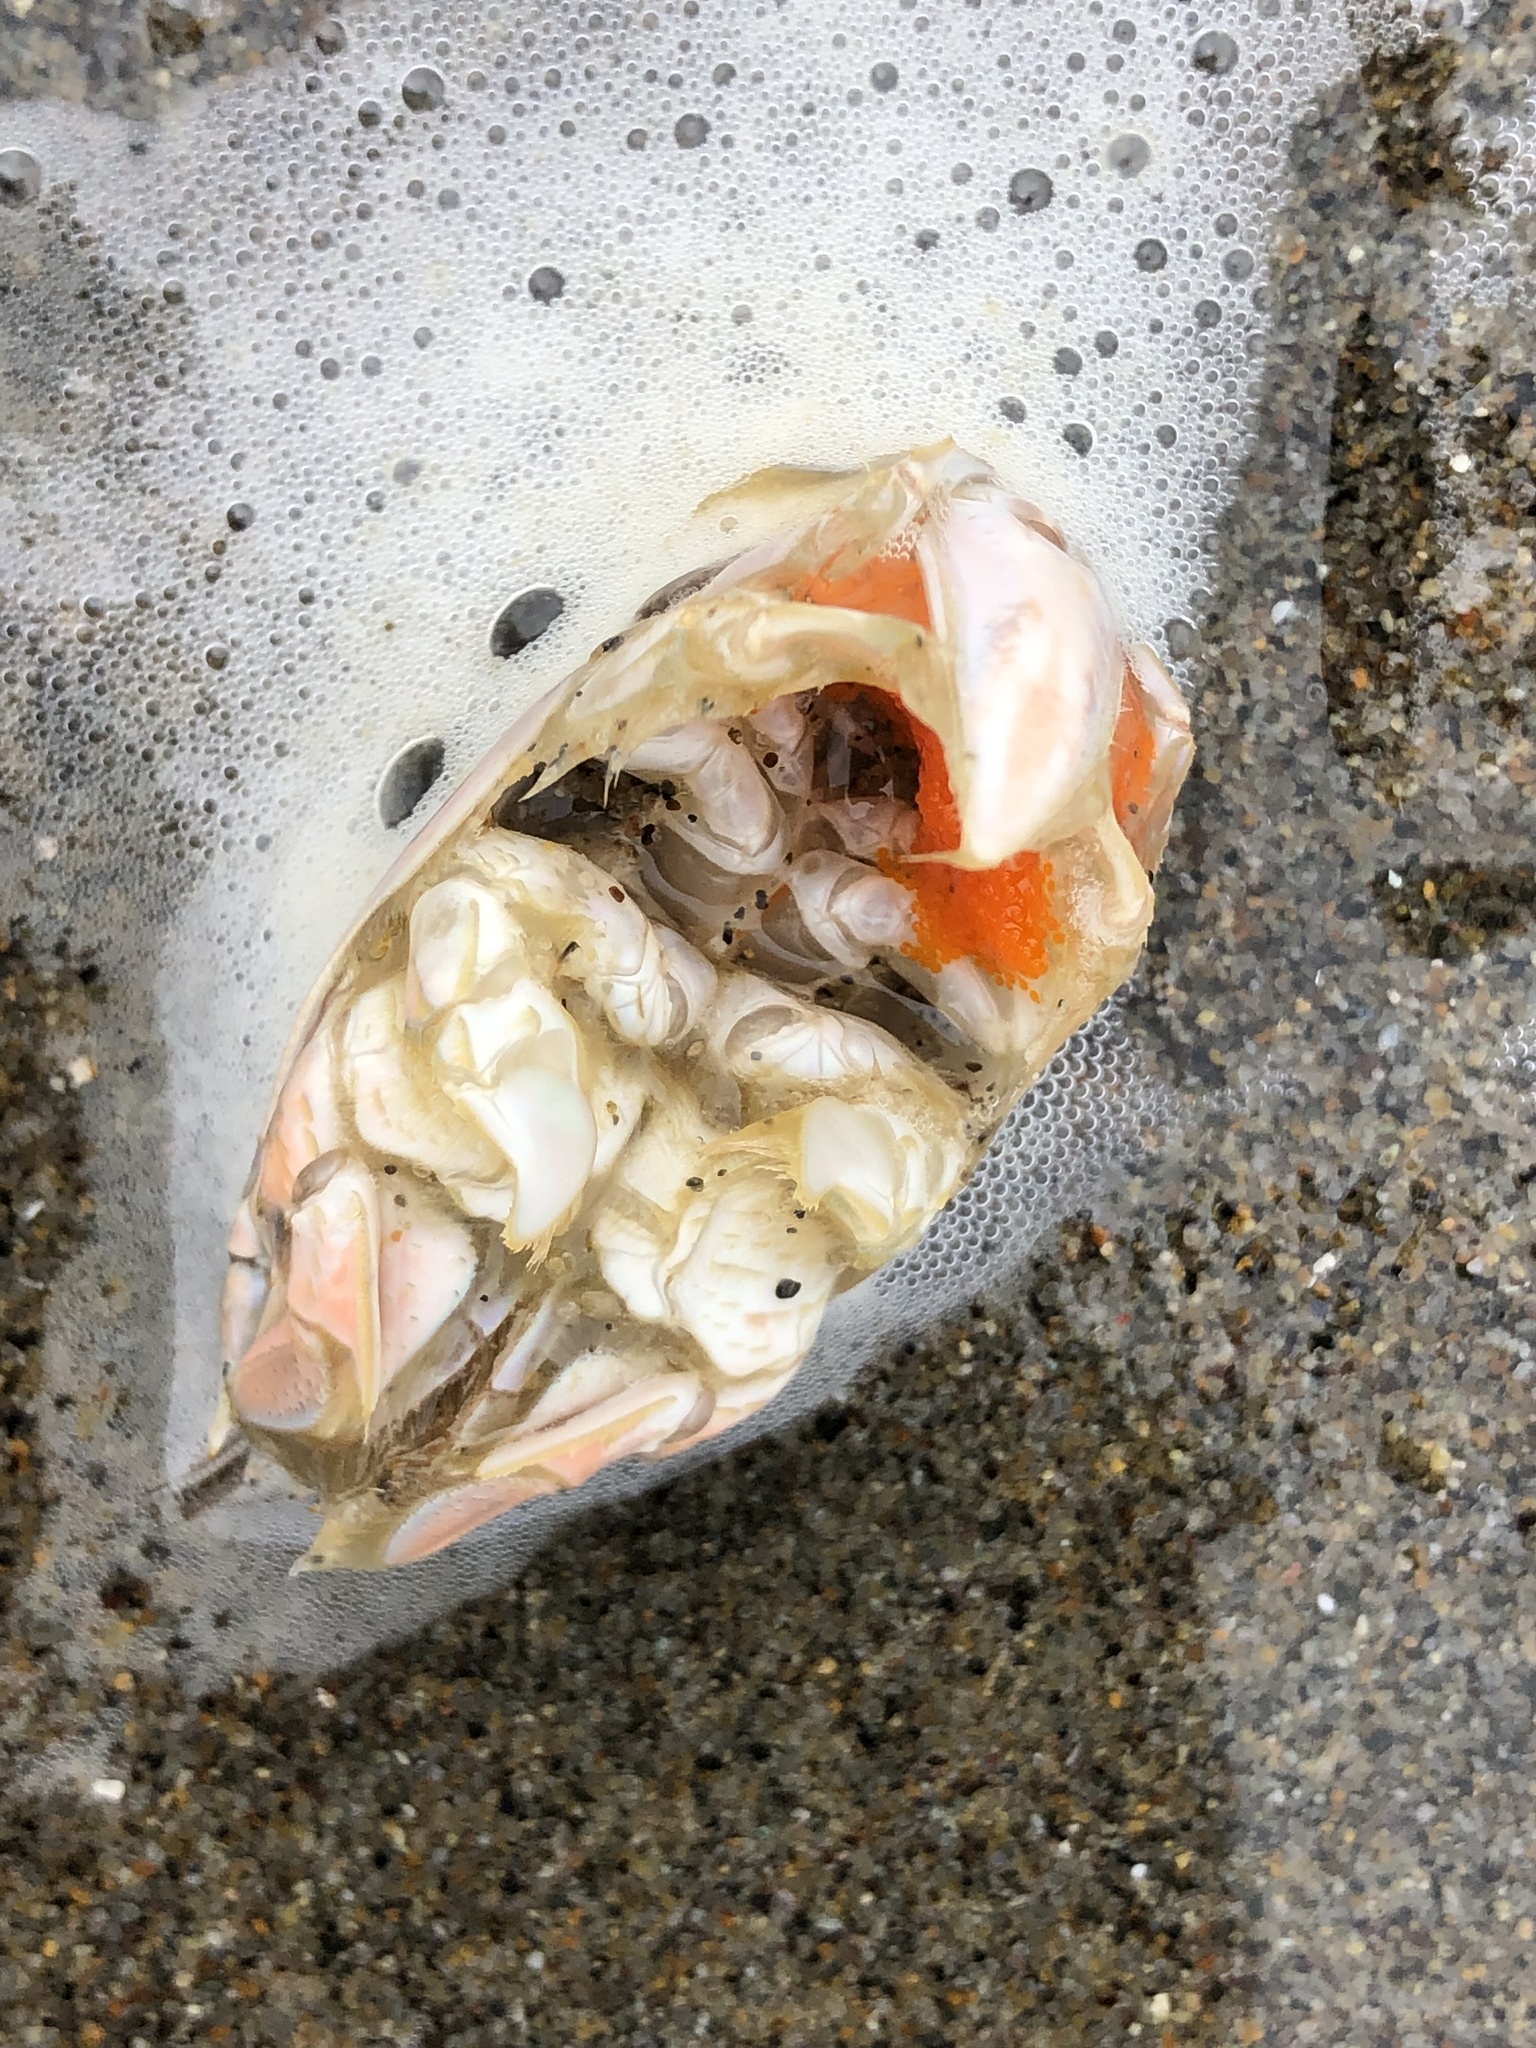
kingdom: Animalia
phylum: Arthropoda
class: Malacostraca
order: Decapoda
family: Hippidae
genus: Emerita
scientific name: Emerita analoga
